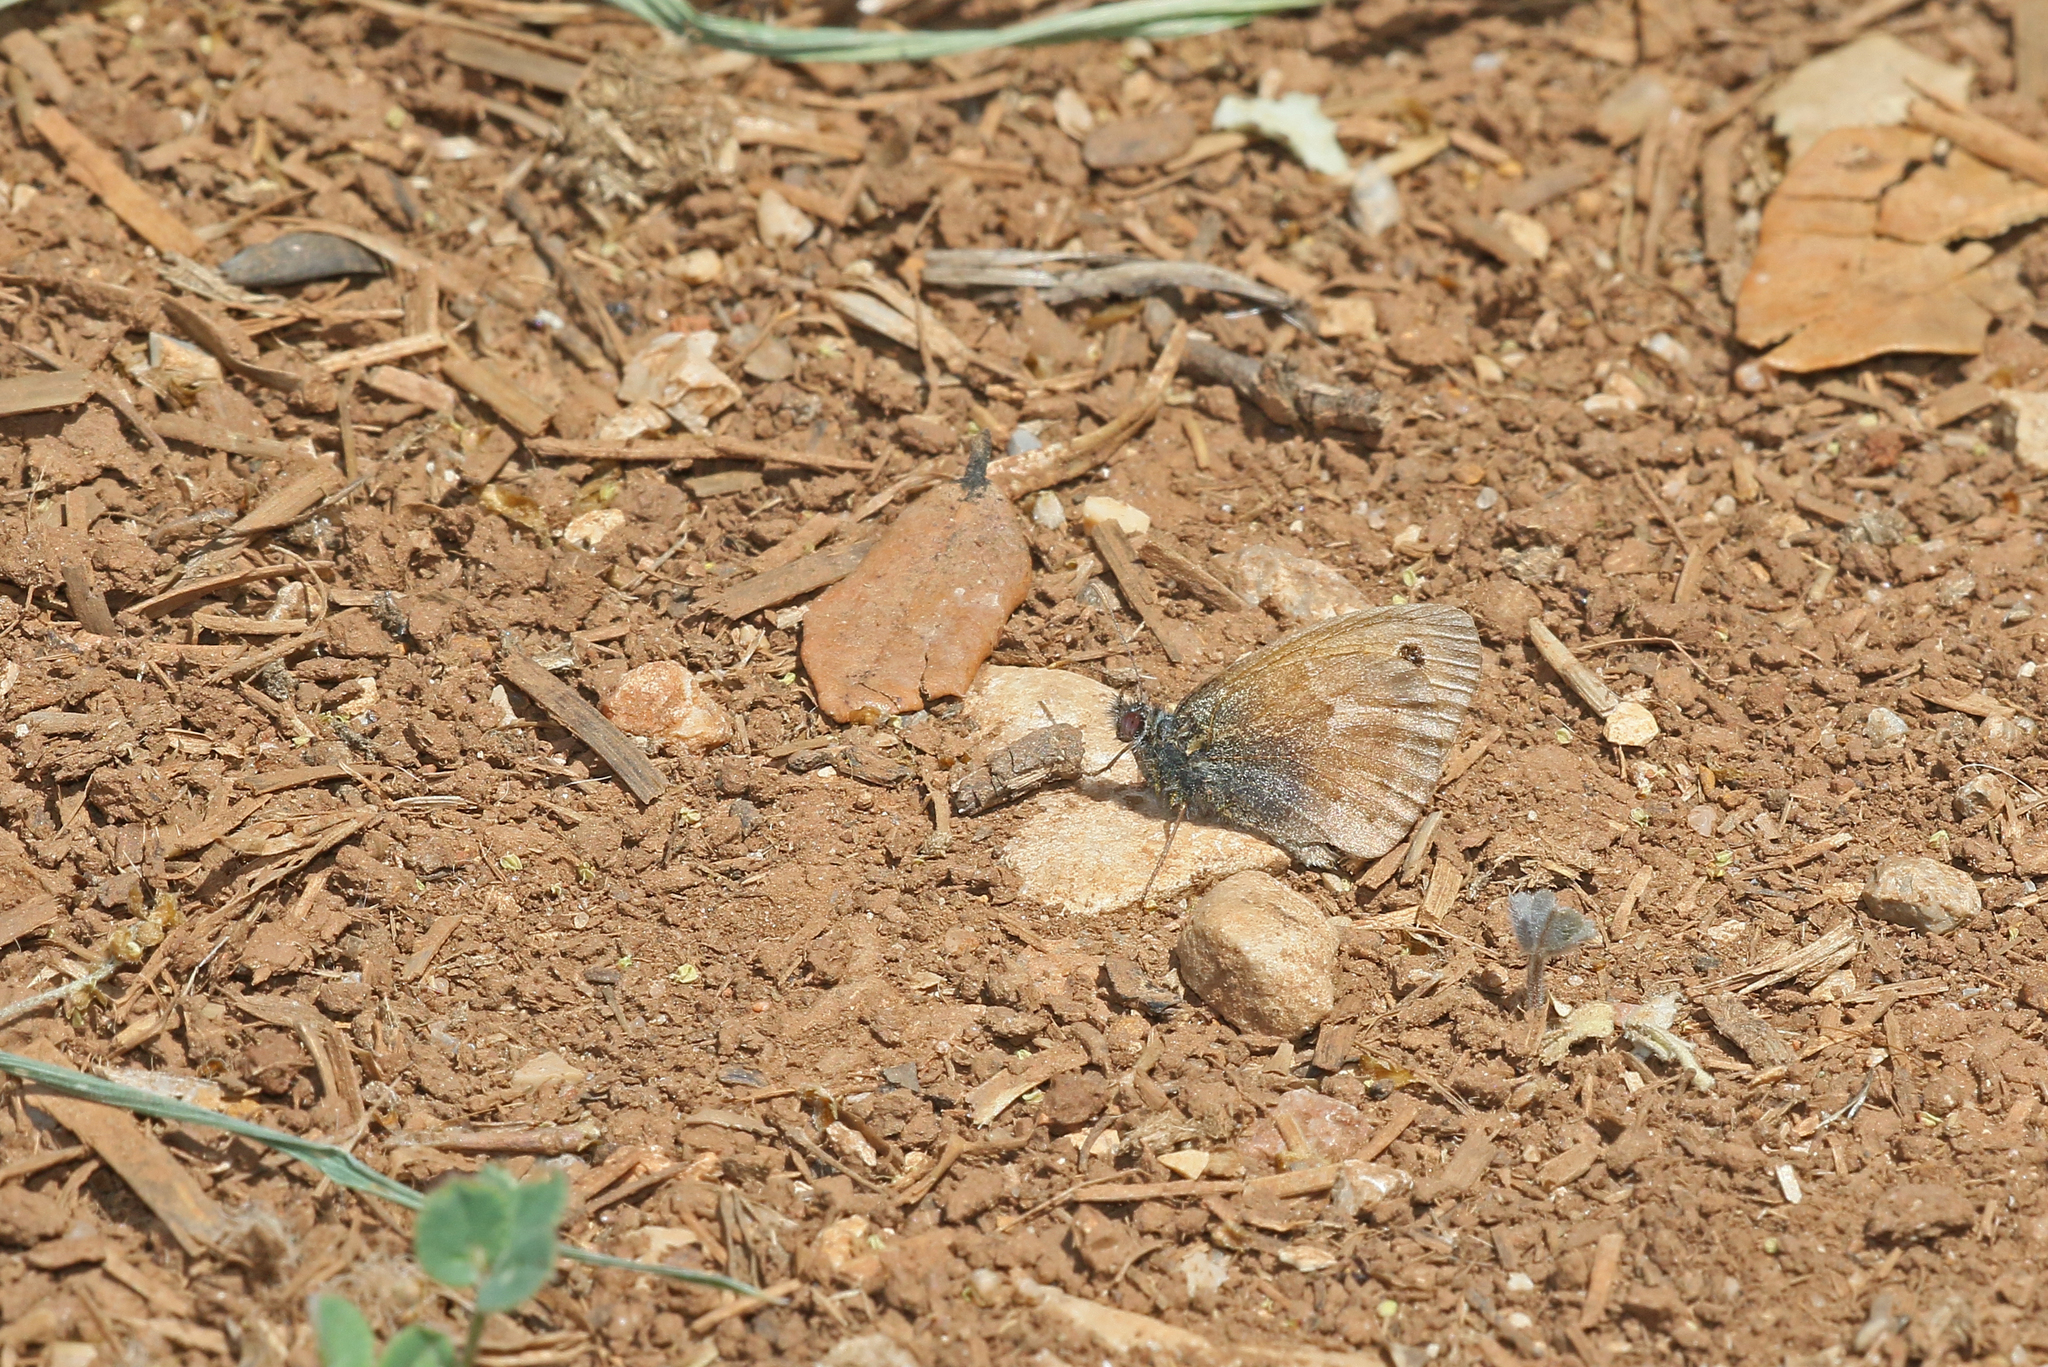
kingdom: Animalia
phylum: Arthropoda
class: Insecta
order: Lepidoptera
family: Nymphalidae
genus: Coenonympha
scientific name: Coenonympha pamphilus
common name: Small heath
